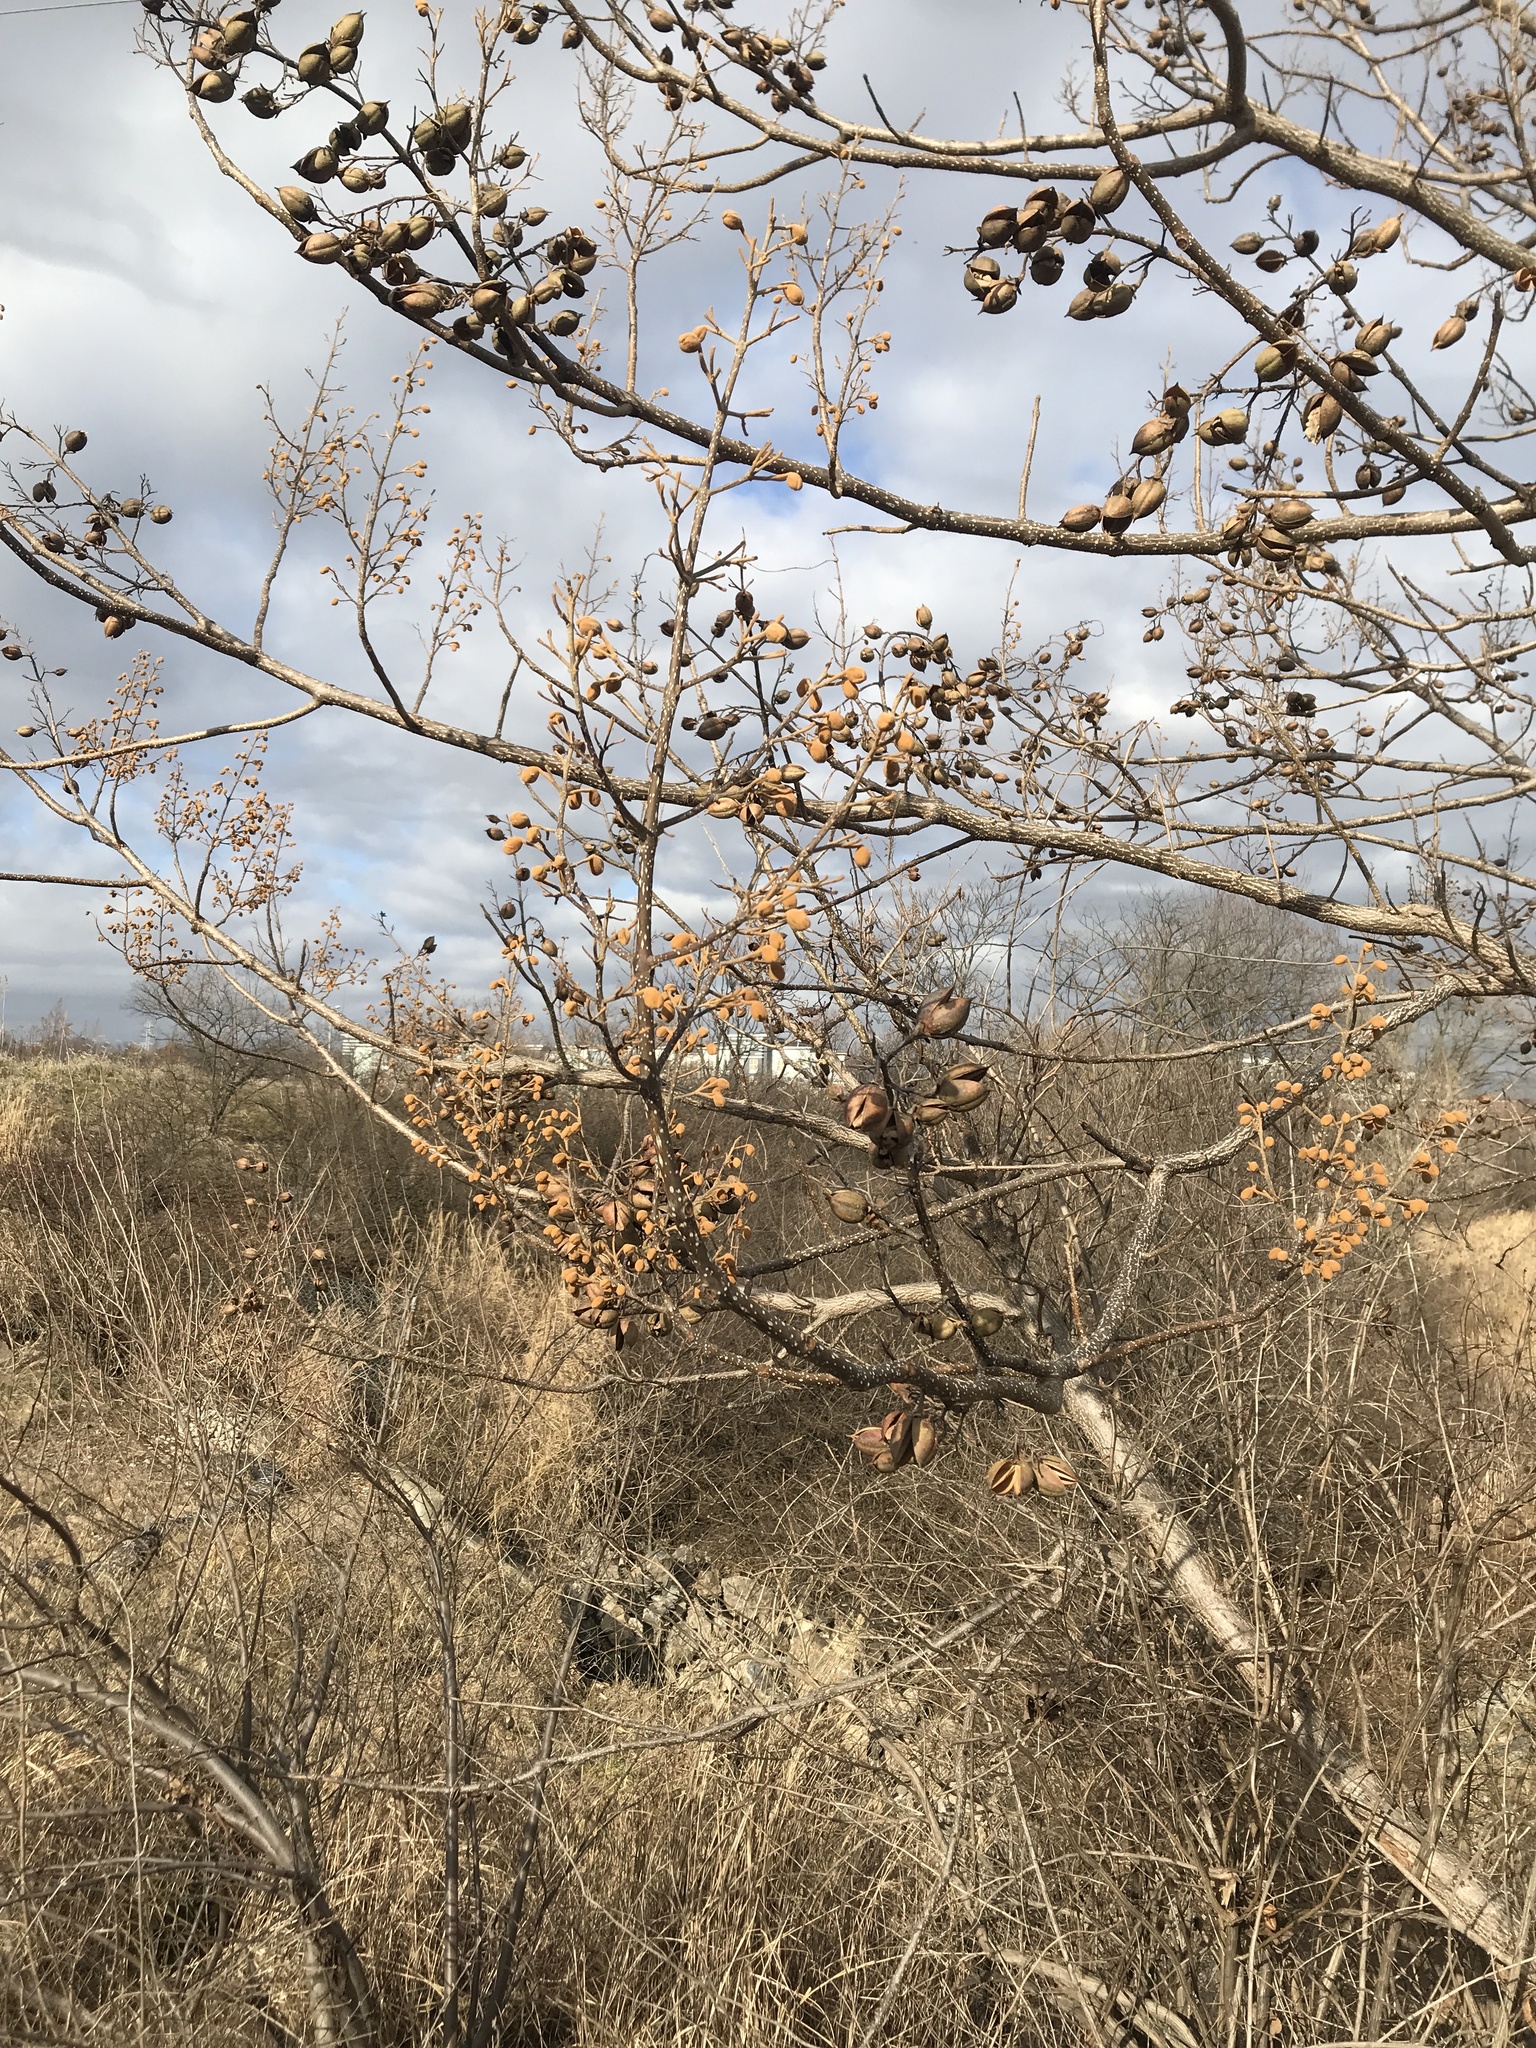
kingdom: Plantae
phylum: Tracheophyta
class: Magnoliopsida
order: Lamiales
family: Paulowniaceae
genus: Paulownia
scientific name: Paulownia tomentosa
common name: Foxglove-tree
